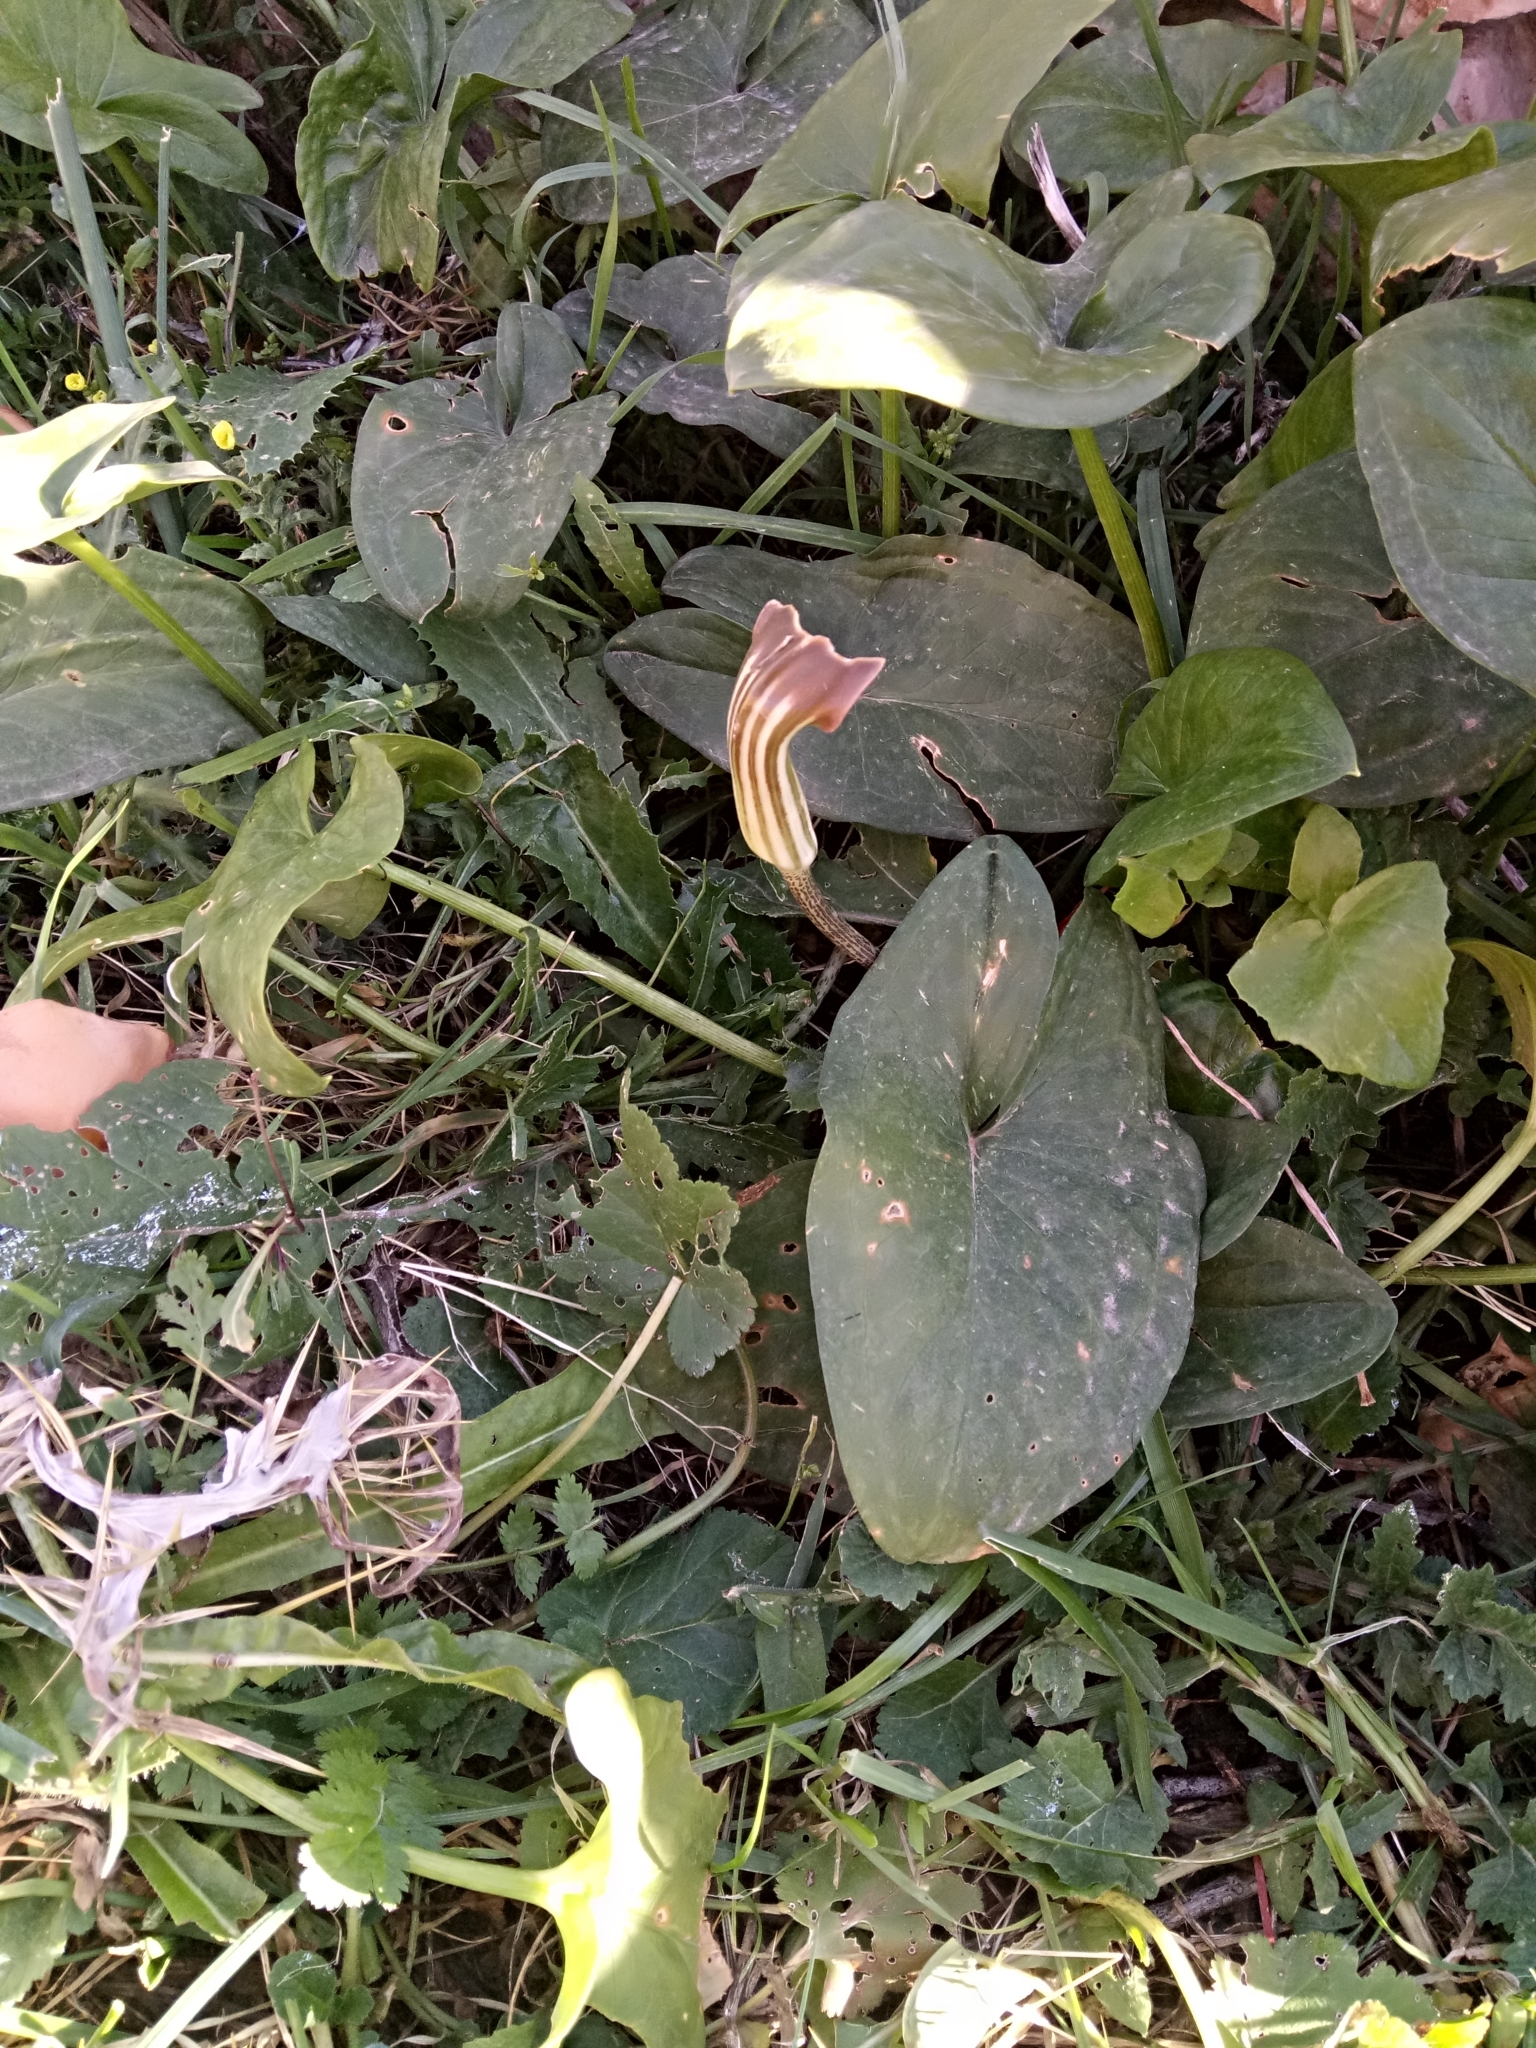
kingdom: Plantae
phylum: Tracheophyta
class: Liliopsida
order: Alismatales
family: Araceae
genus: Arisarum
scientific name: Arisarum vulgare
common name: Common arisarum
